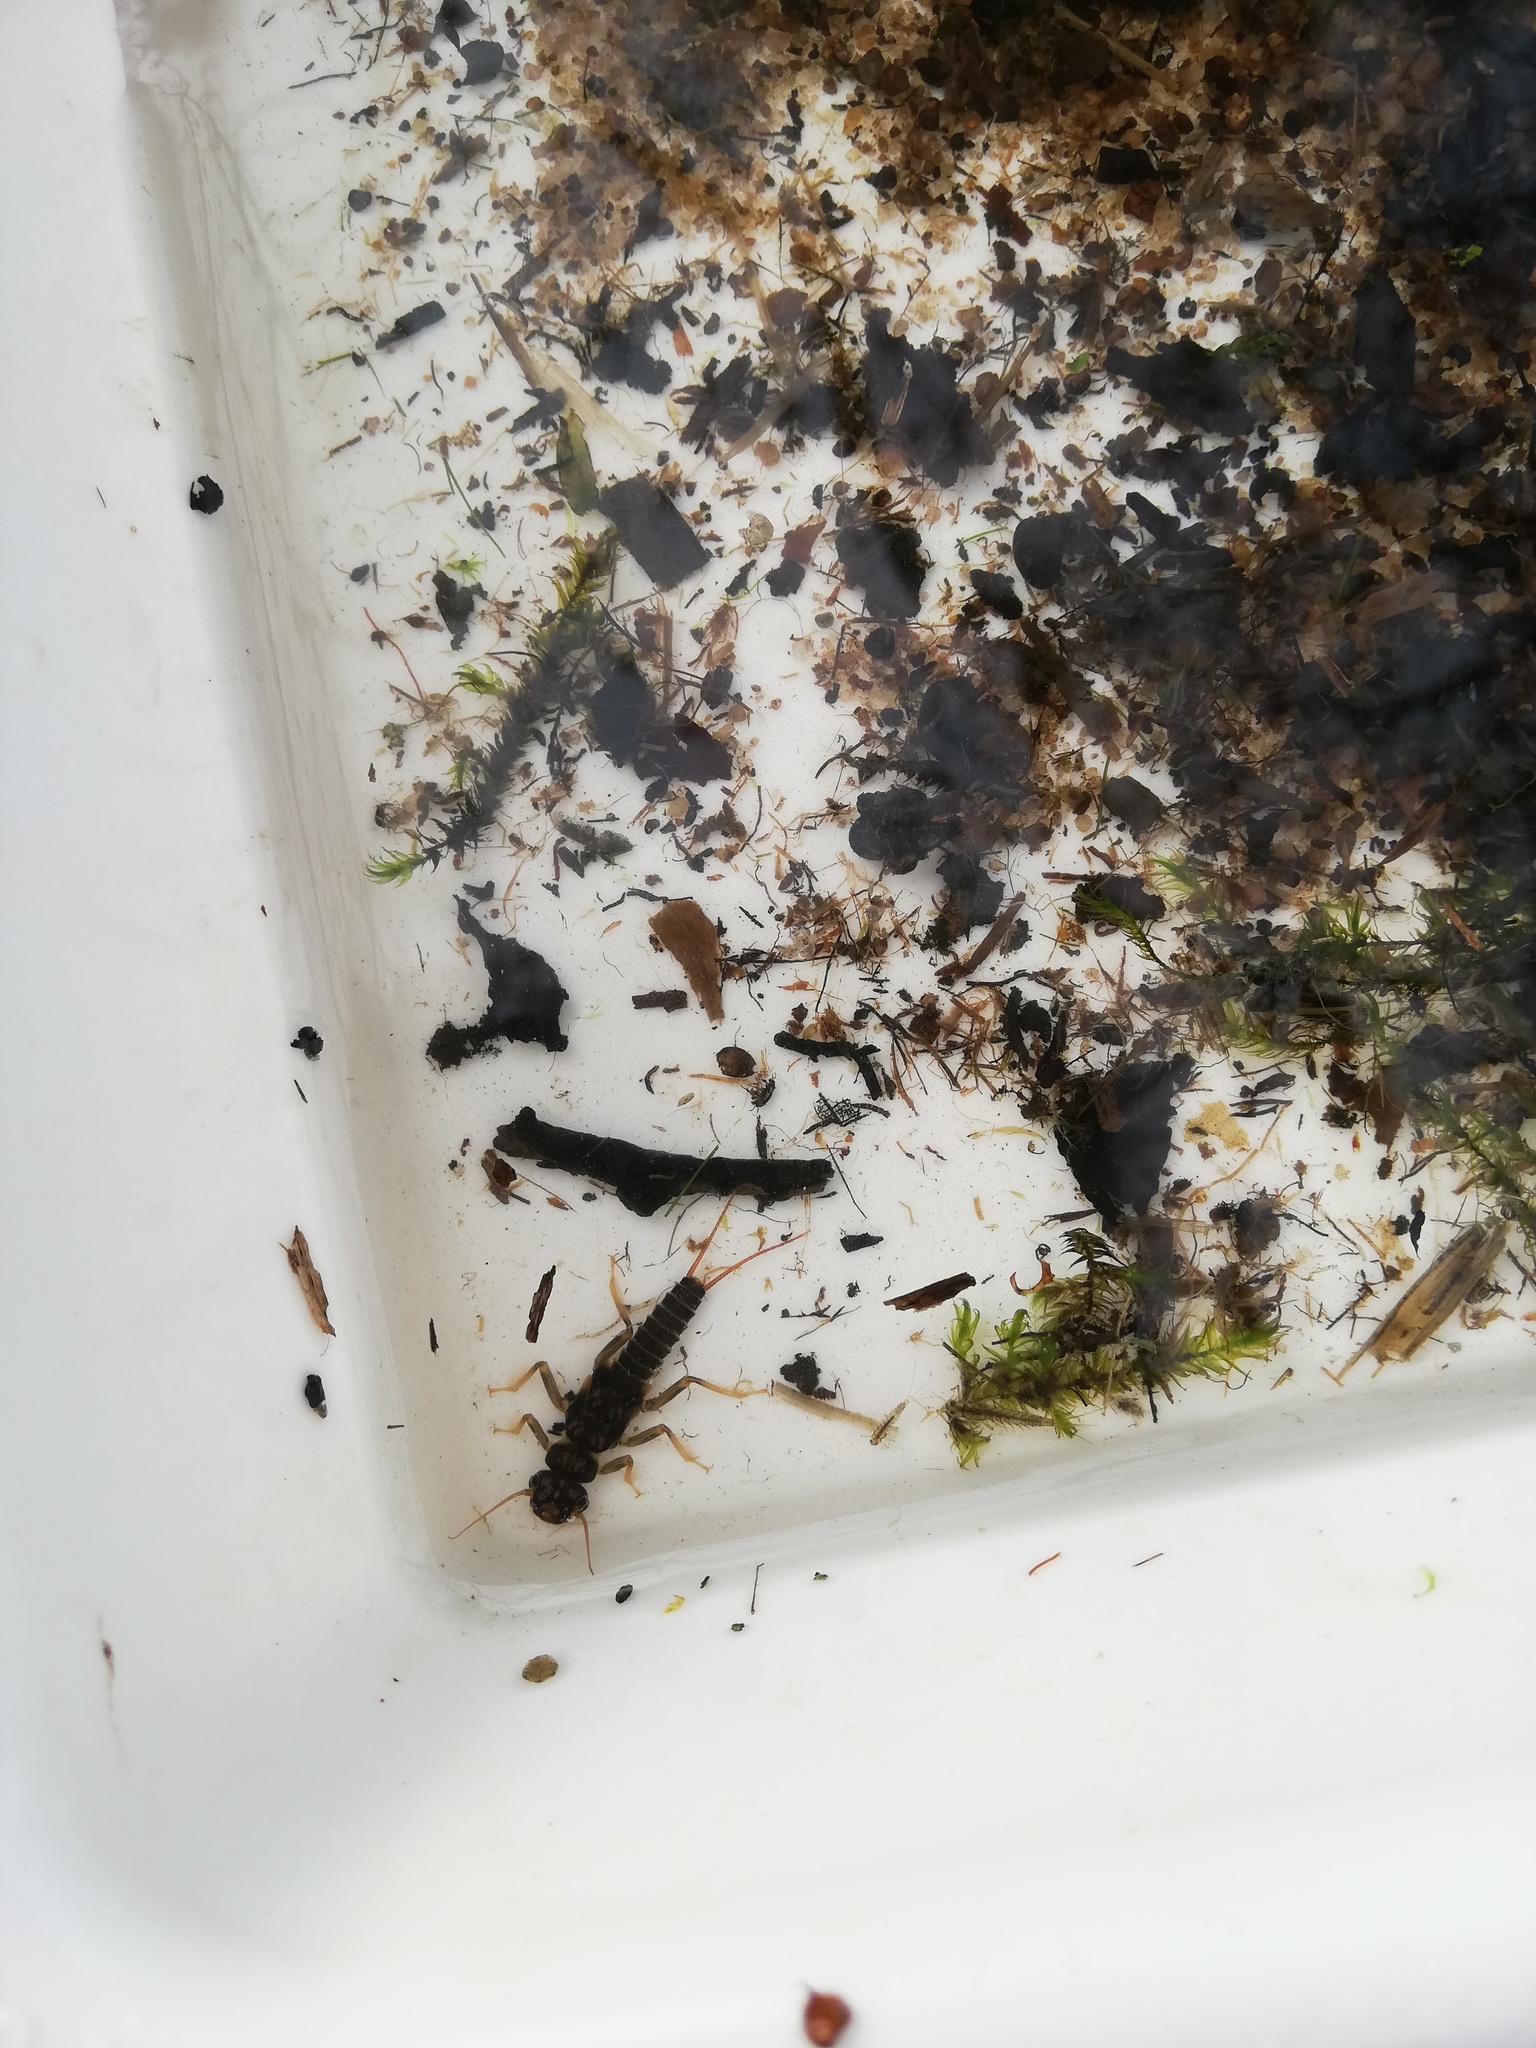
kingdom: Animalia
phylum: Arthropoda
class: Insecta
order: Plecoptera
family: Perlodidae
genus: Perlodes
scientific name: Perlodes microcephalus
